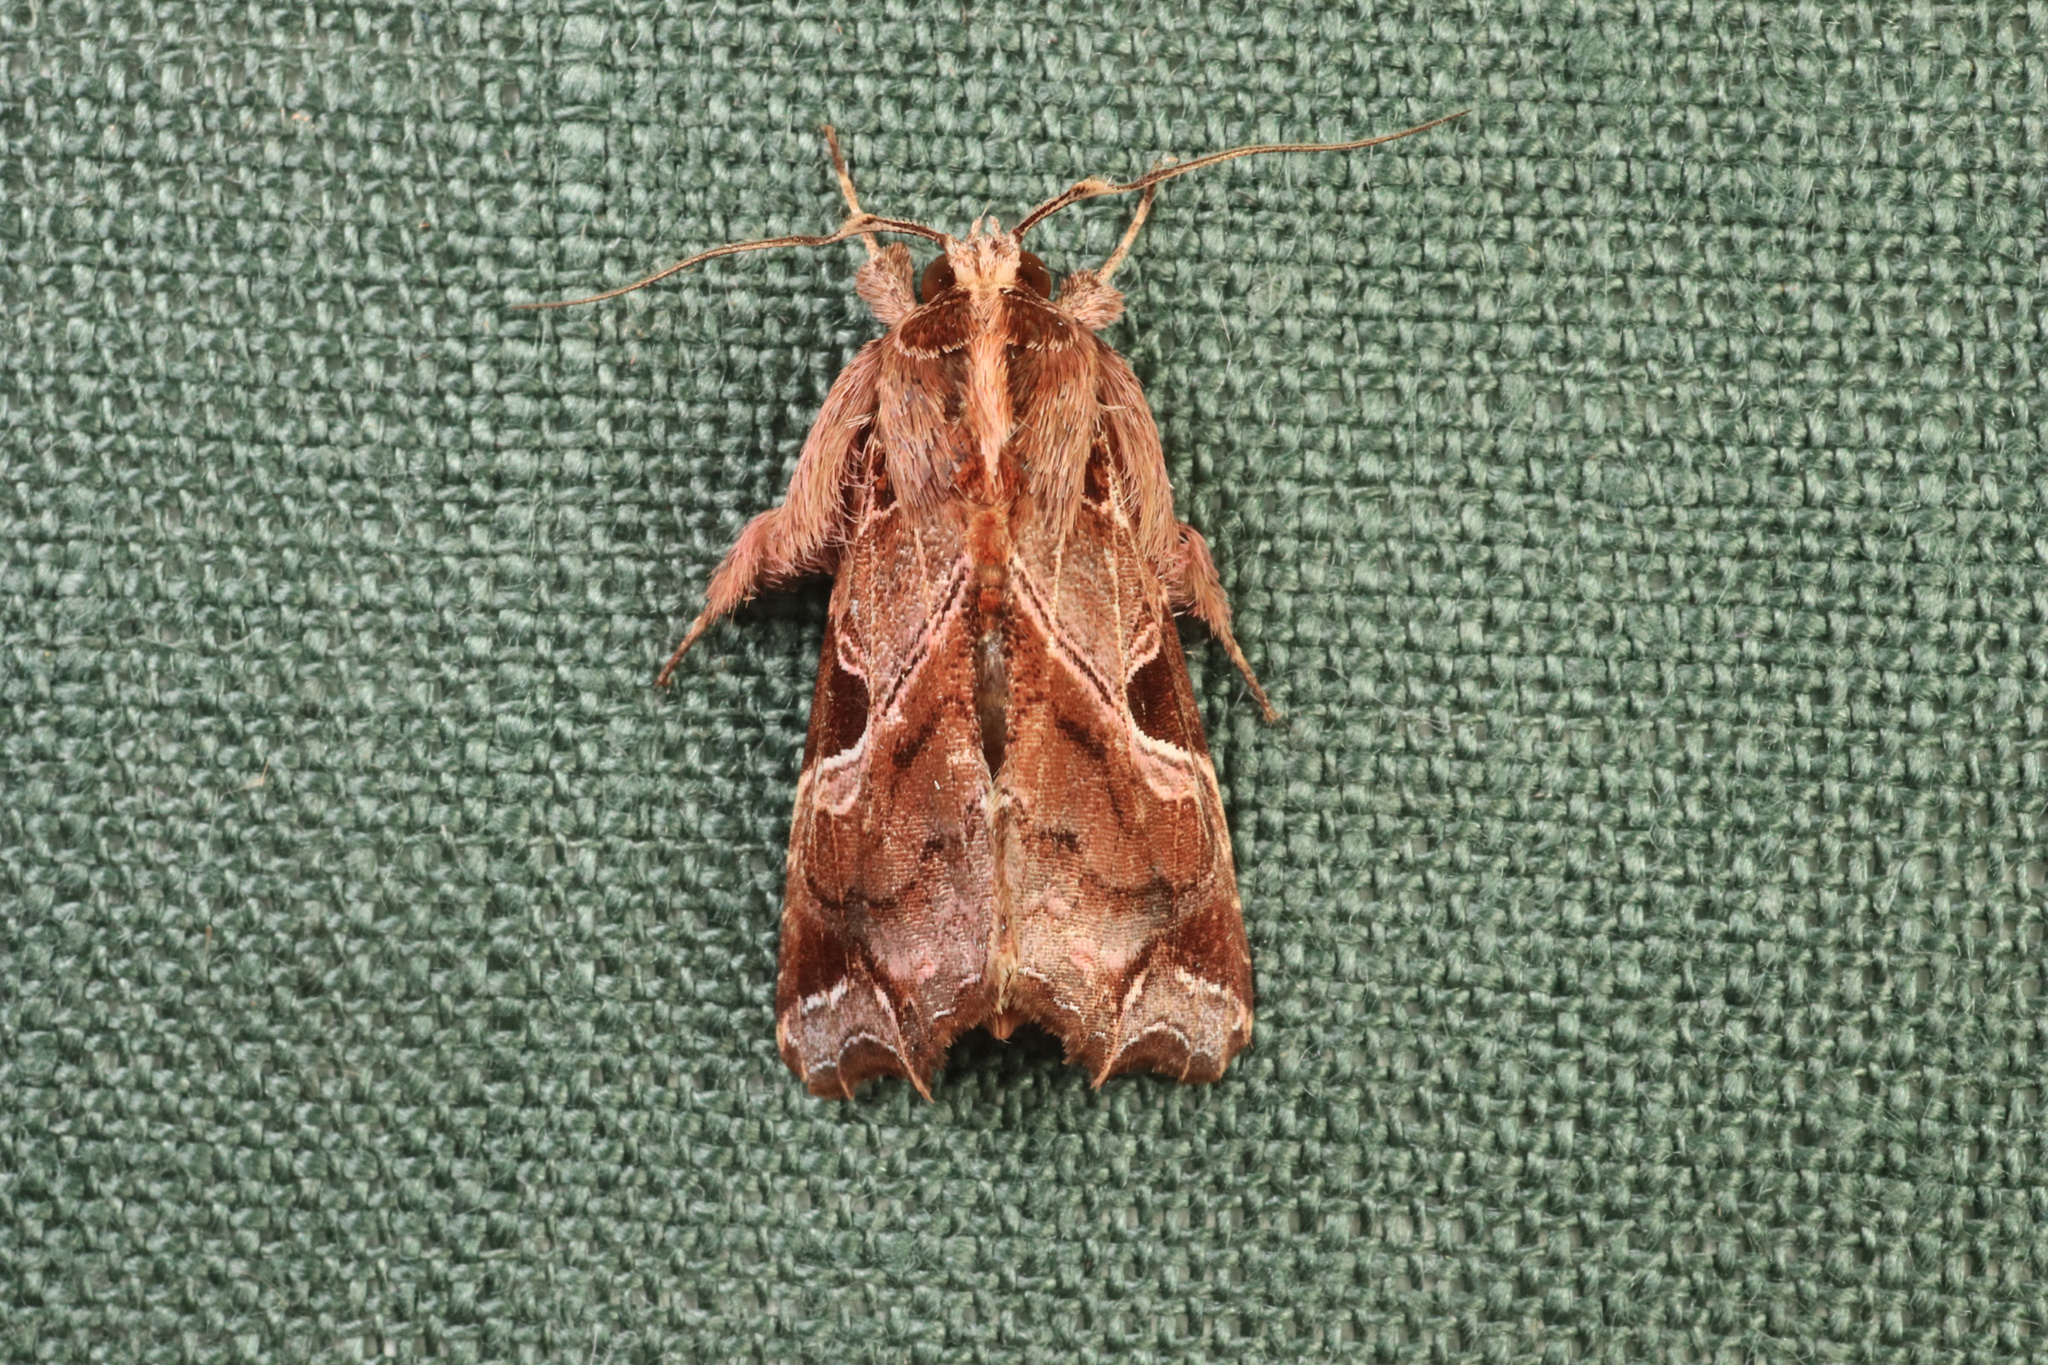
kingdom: Animalia
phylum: Arthropoda
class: Insecta
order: Lepidoptera
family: Noctuidae
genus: Callopistria
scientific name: Callopistria floridensis
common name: Florida fern moth
